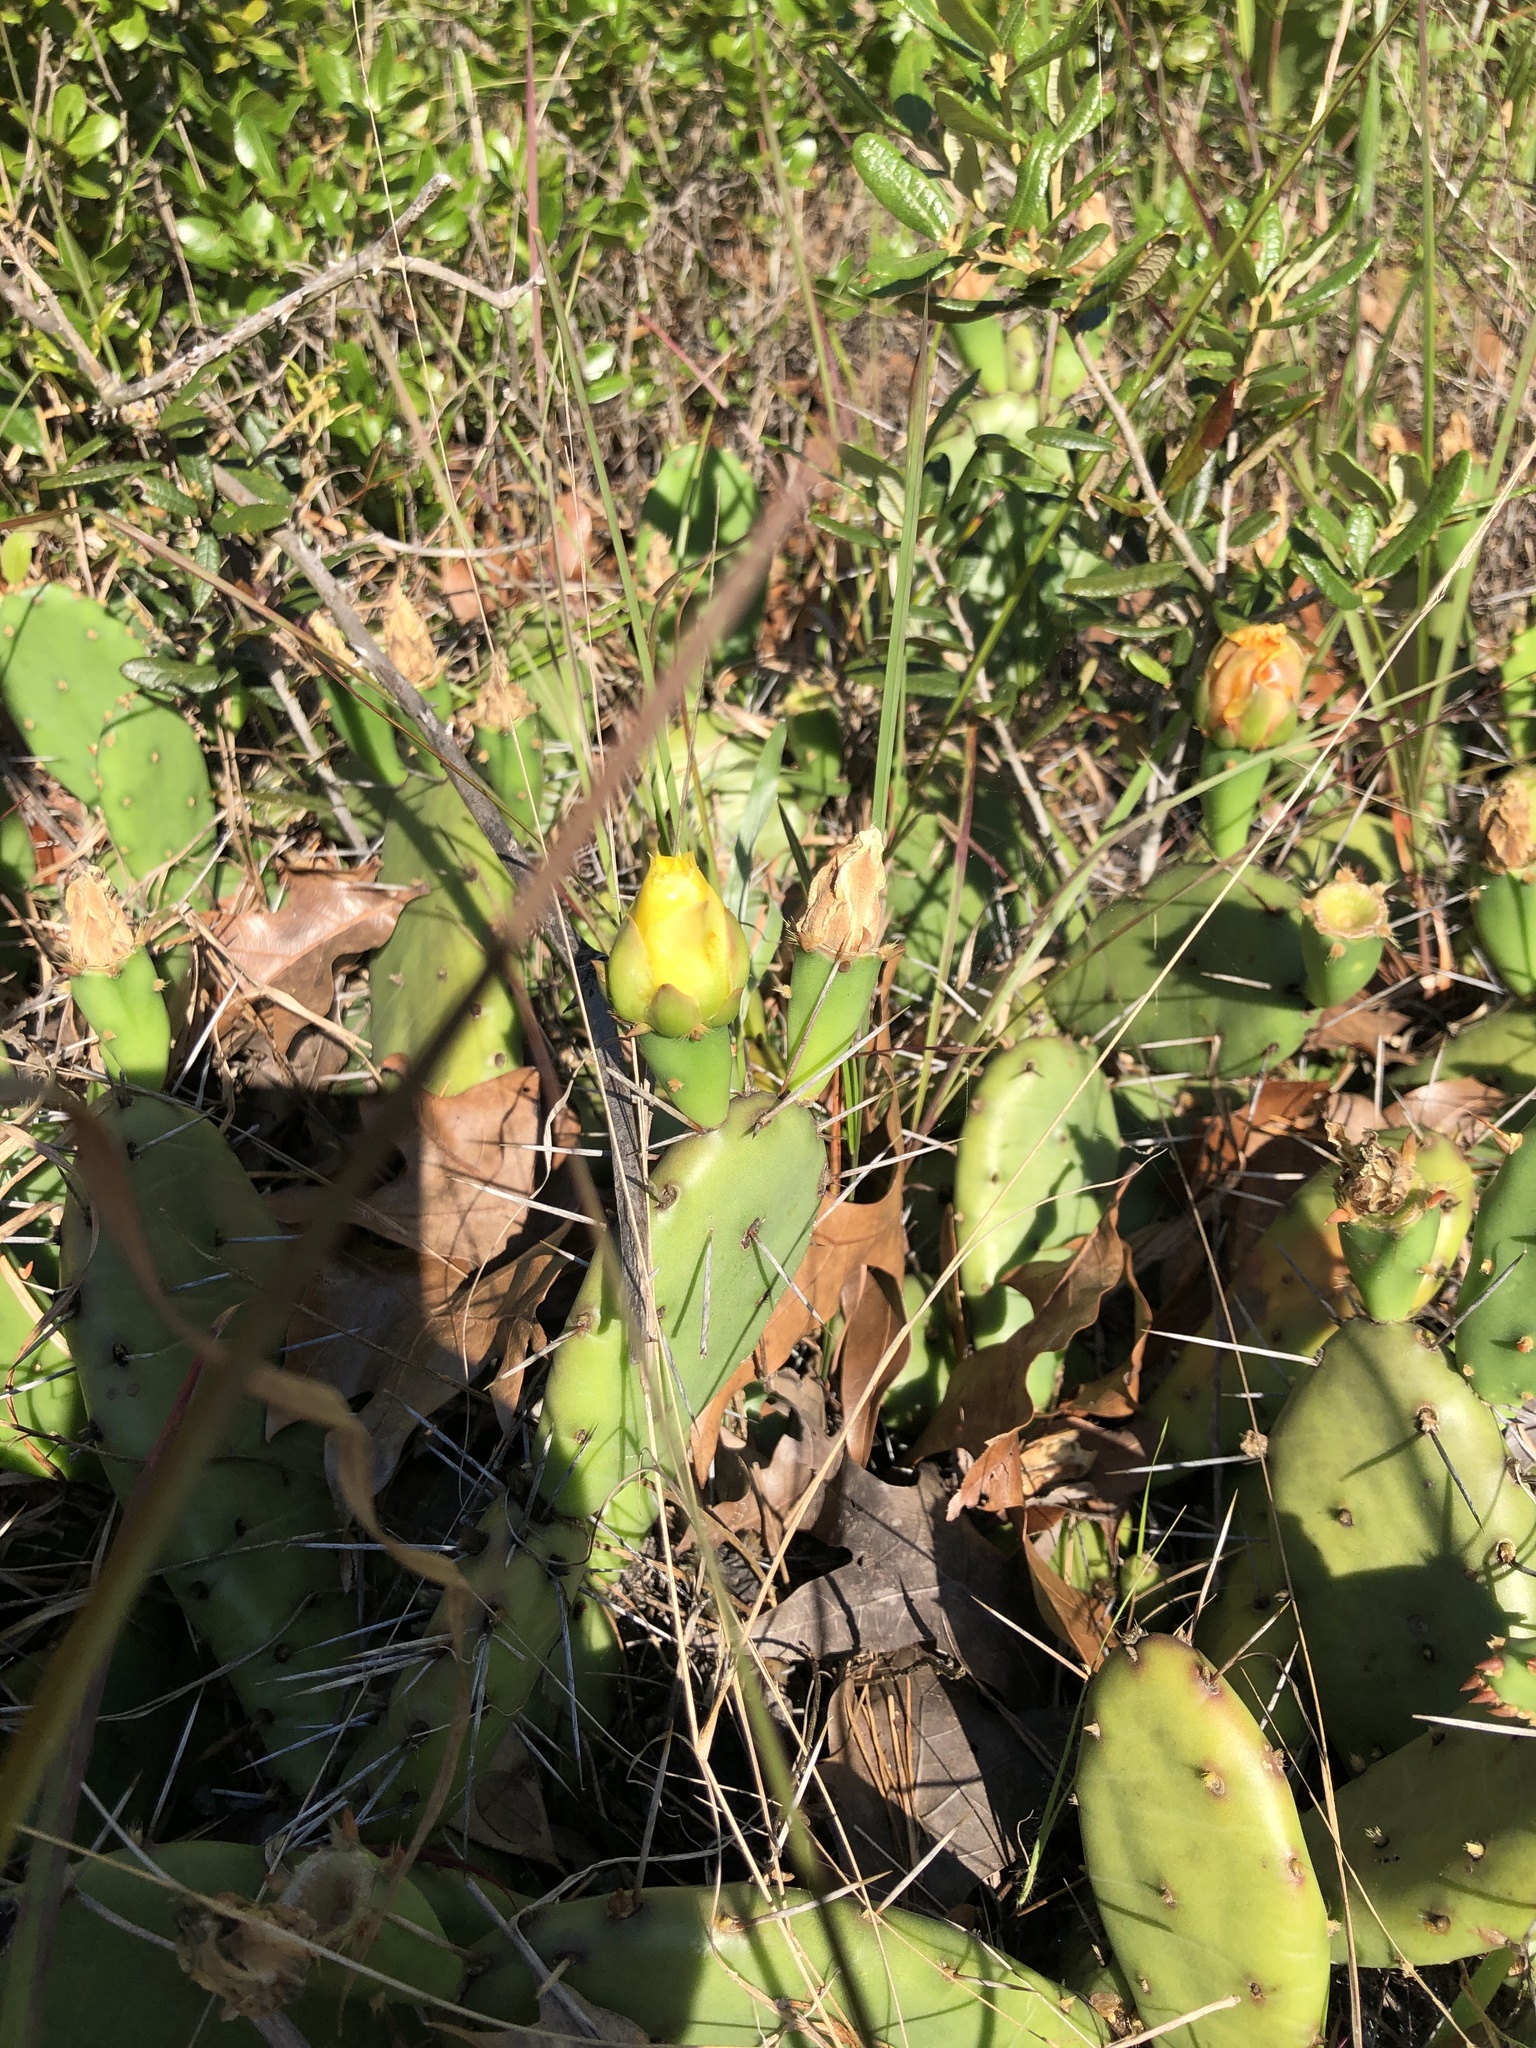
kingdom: Plantae
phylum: Tracheophyta
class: Magnoliopsida
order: Caryophyllales
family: Cactaceae
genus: Opuntia
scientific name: Opuntia mesacantha
